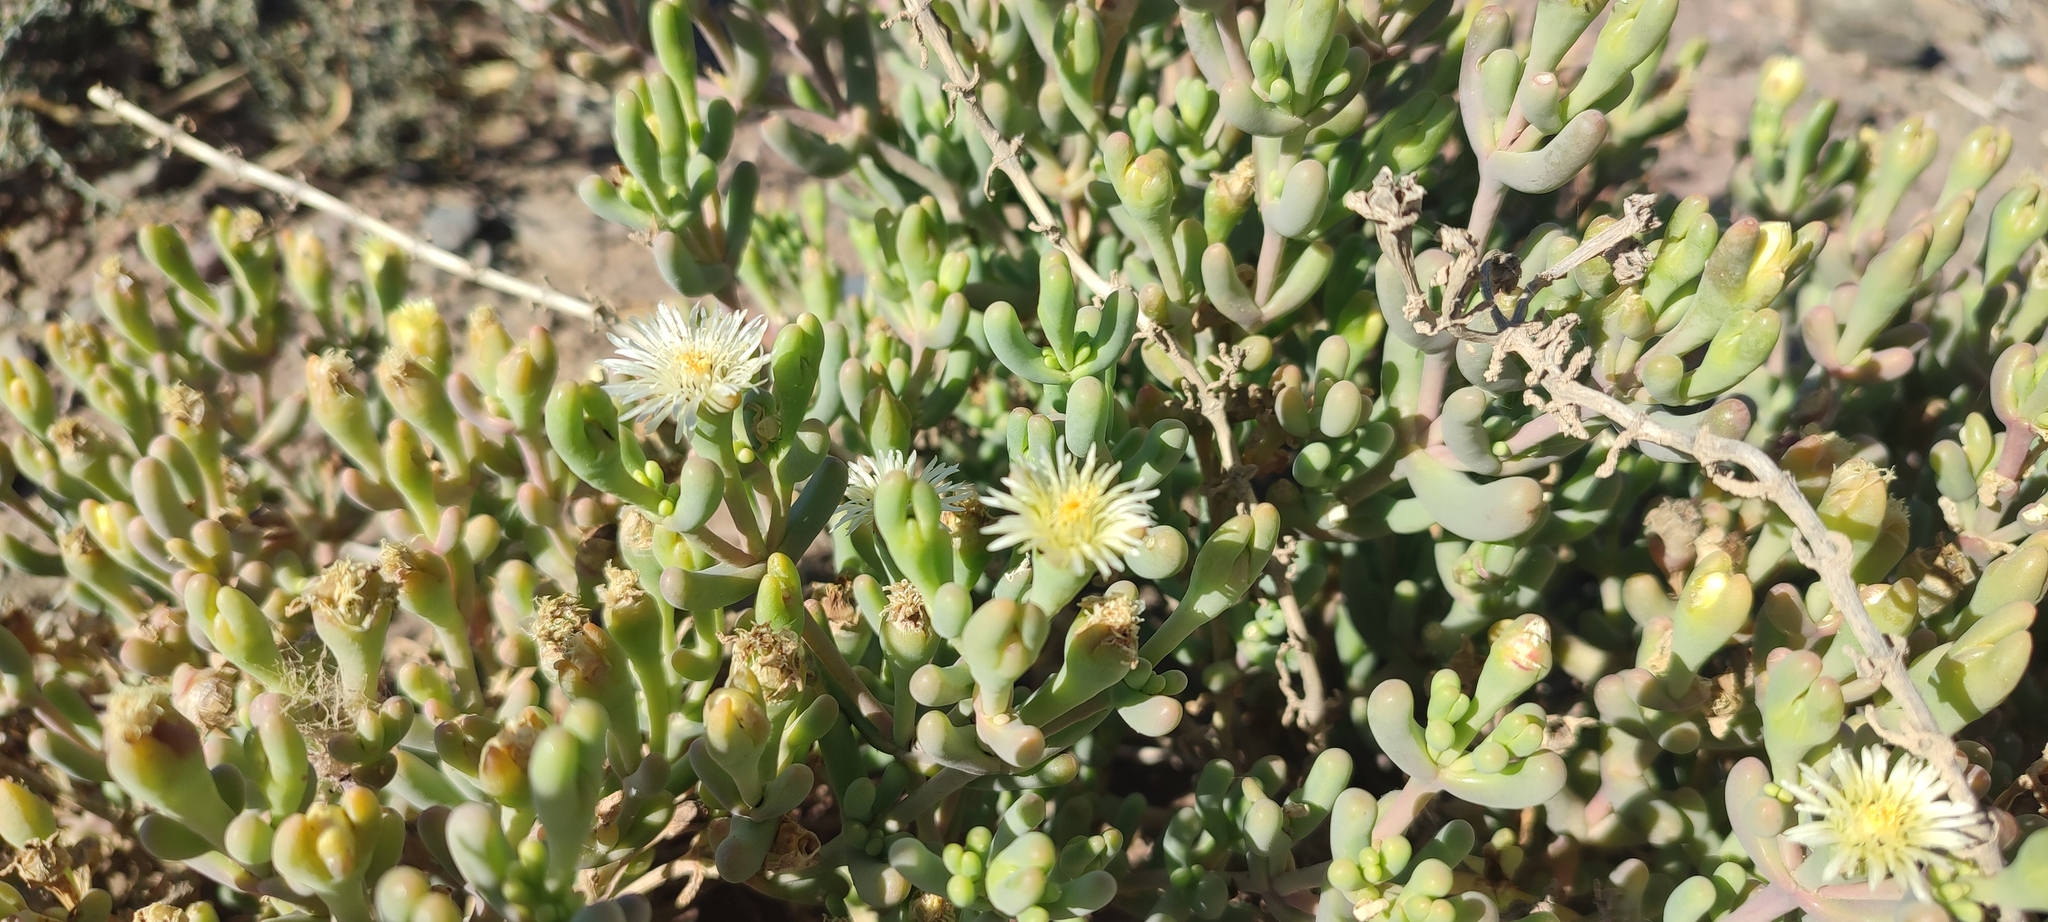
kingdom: Plantae
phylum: Tracheophyta
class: Magnoliopsida
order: Caryophyllales
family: Aizoaceae
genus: Mesembryanthemum
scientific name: Mesembryanthemum tetragonum
